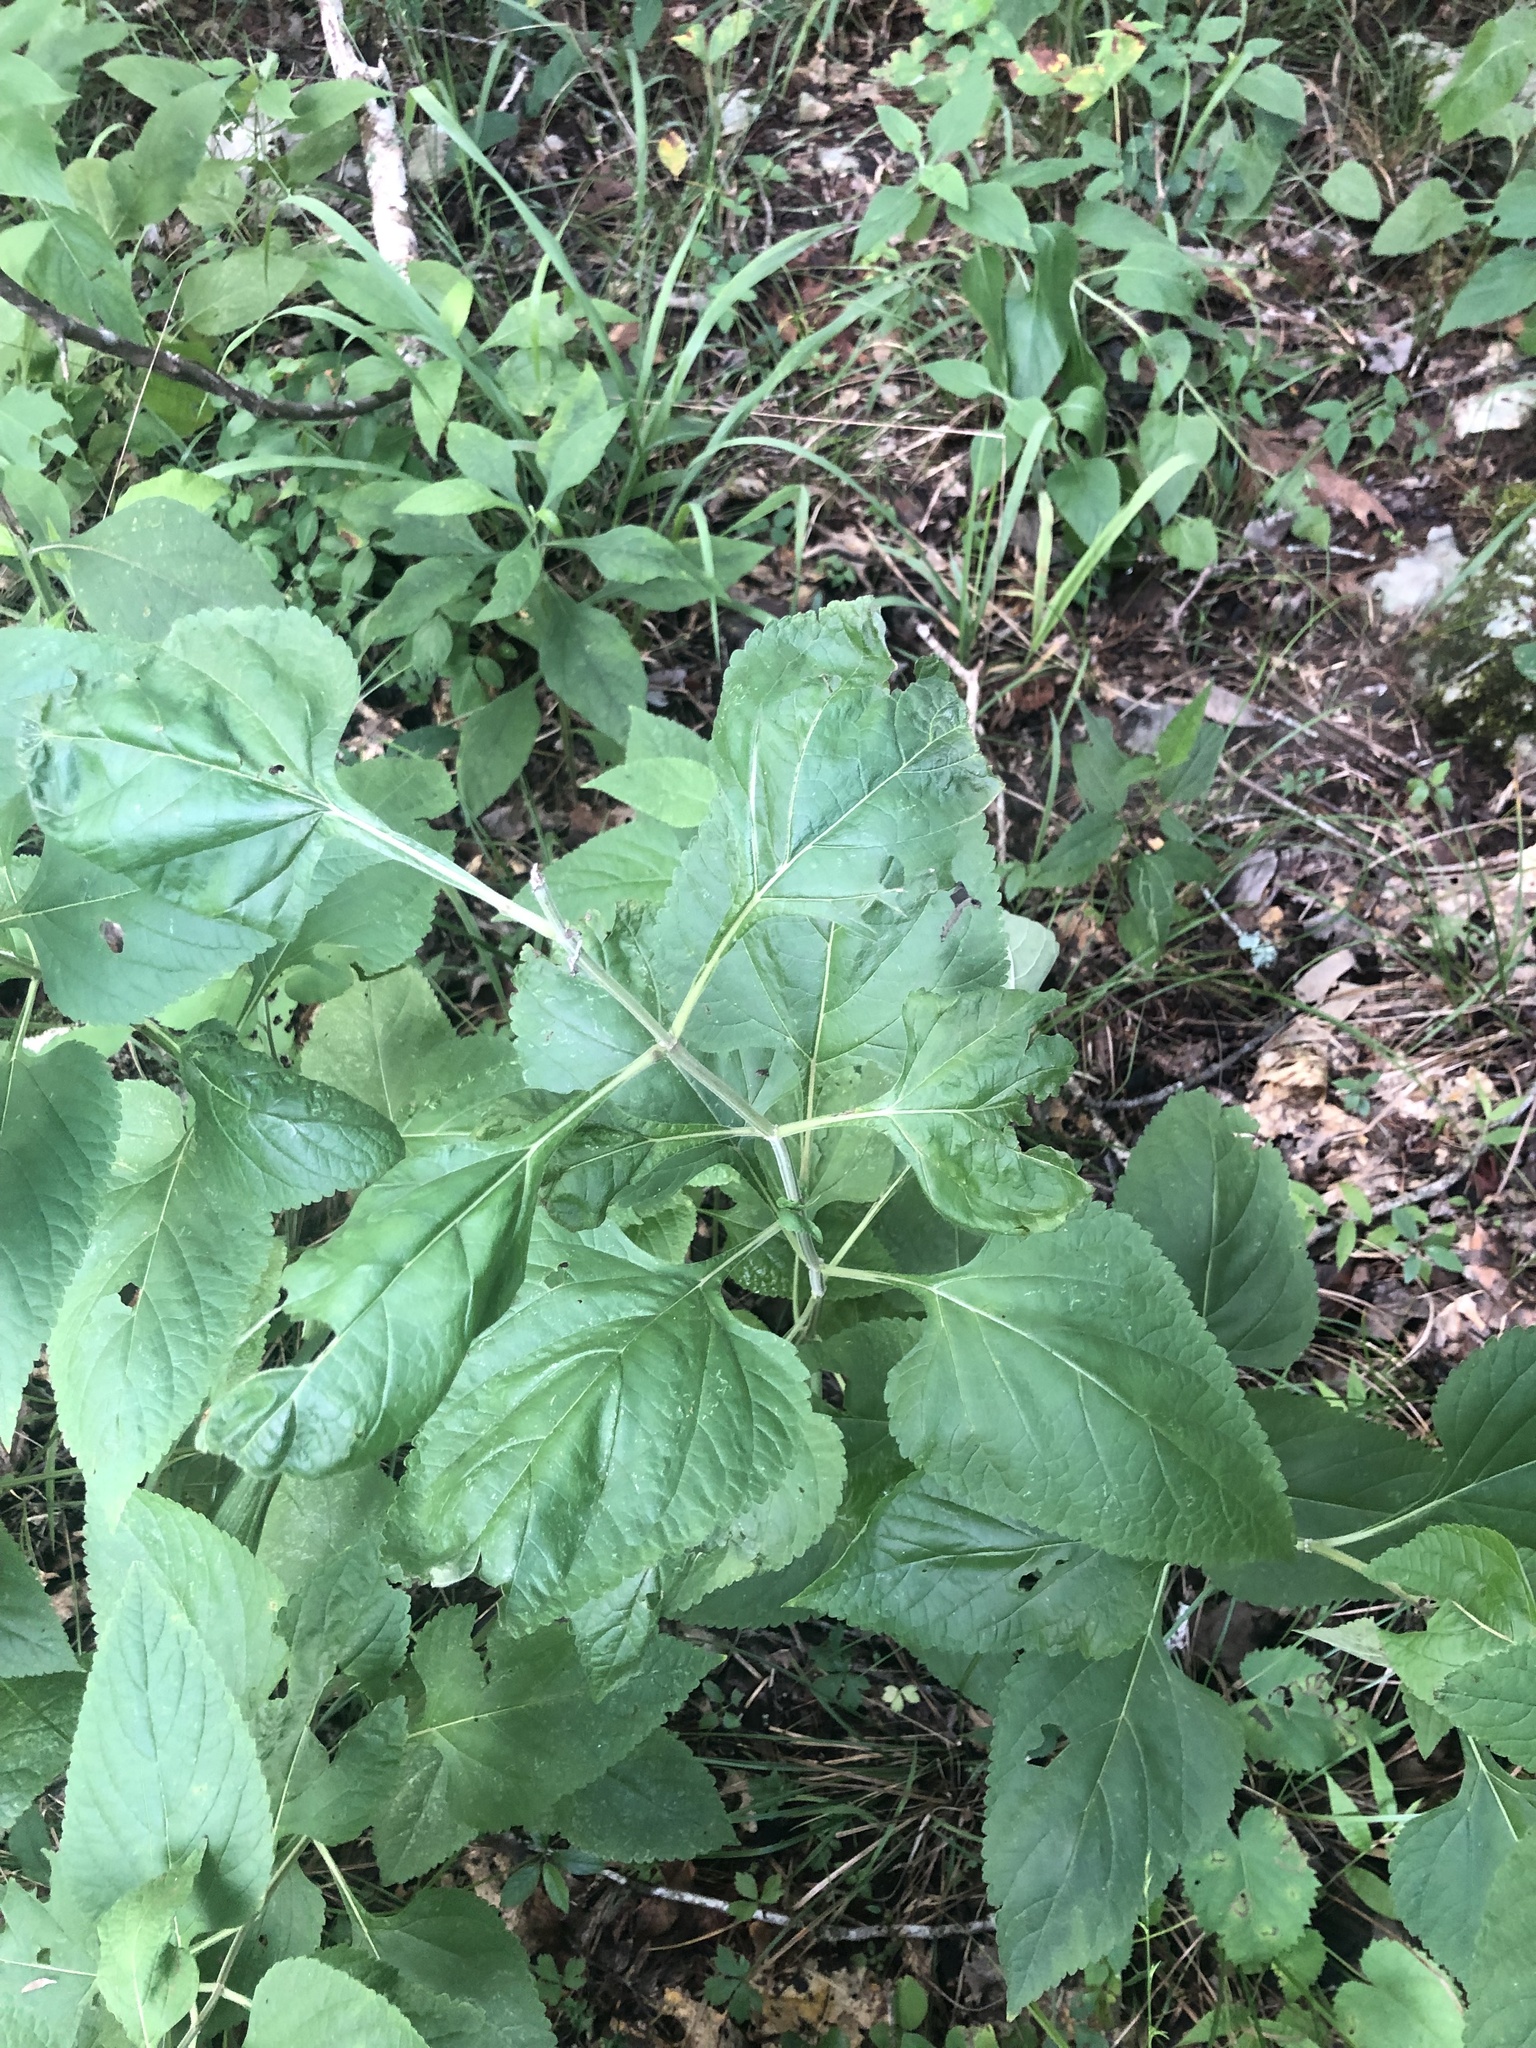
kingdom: Plantae
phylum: Tracheophyta
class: Magnoliopsida
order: Lamiales
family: Lamiaceae
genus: Salvia
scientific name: Salvia chapmanii
